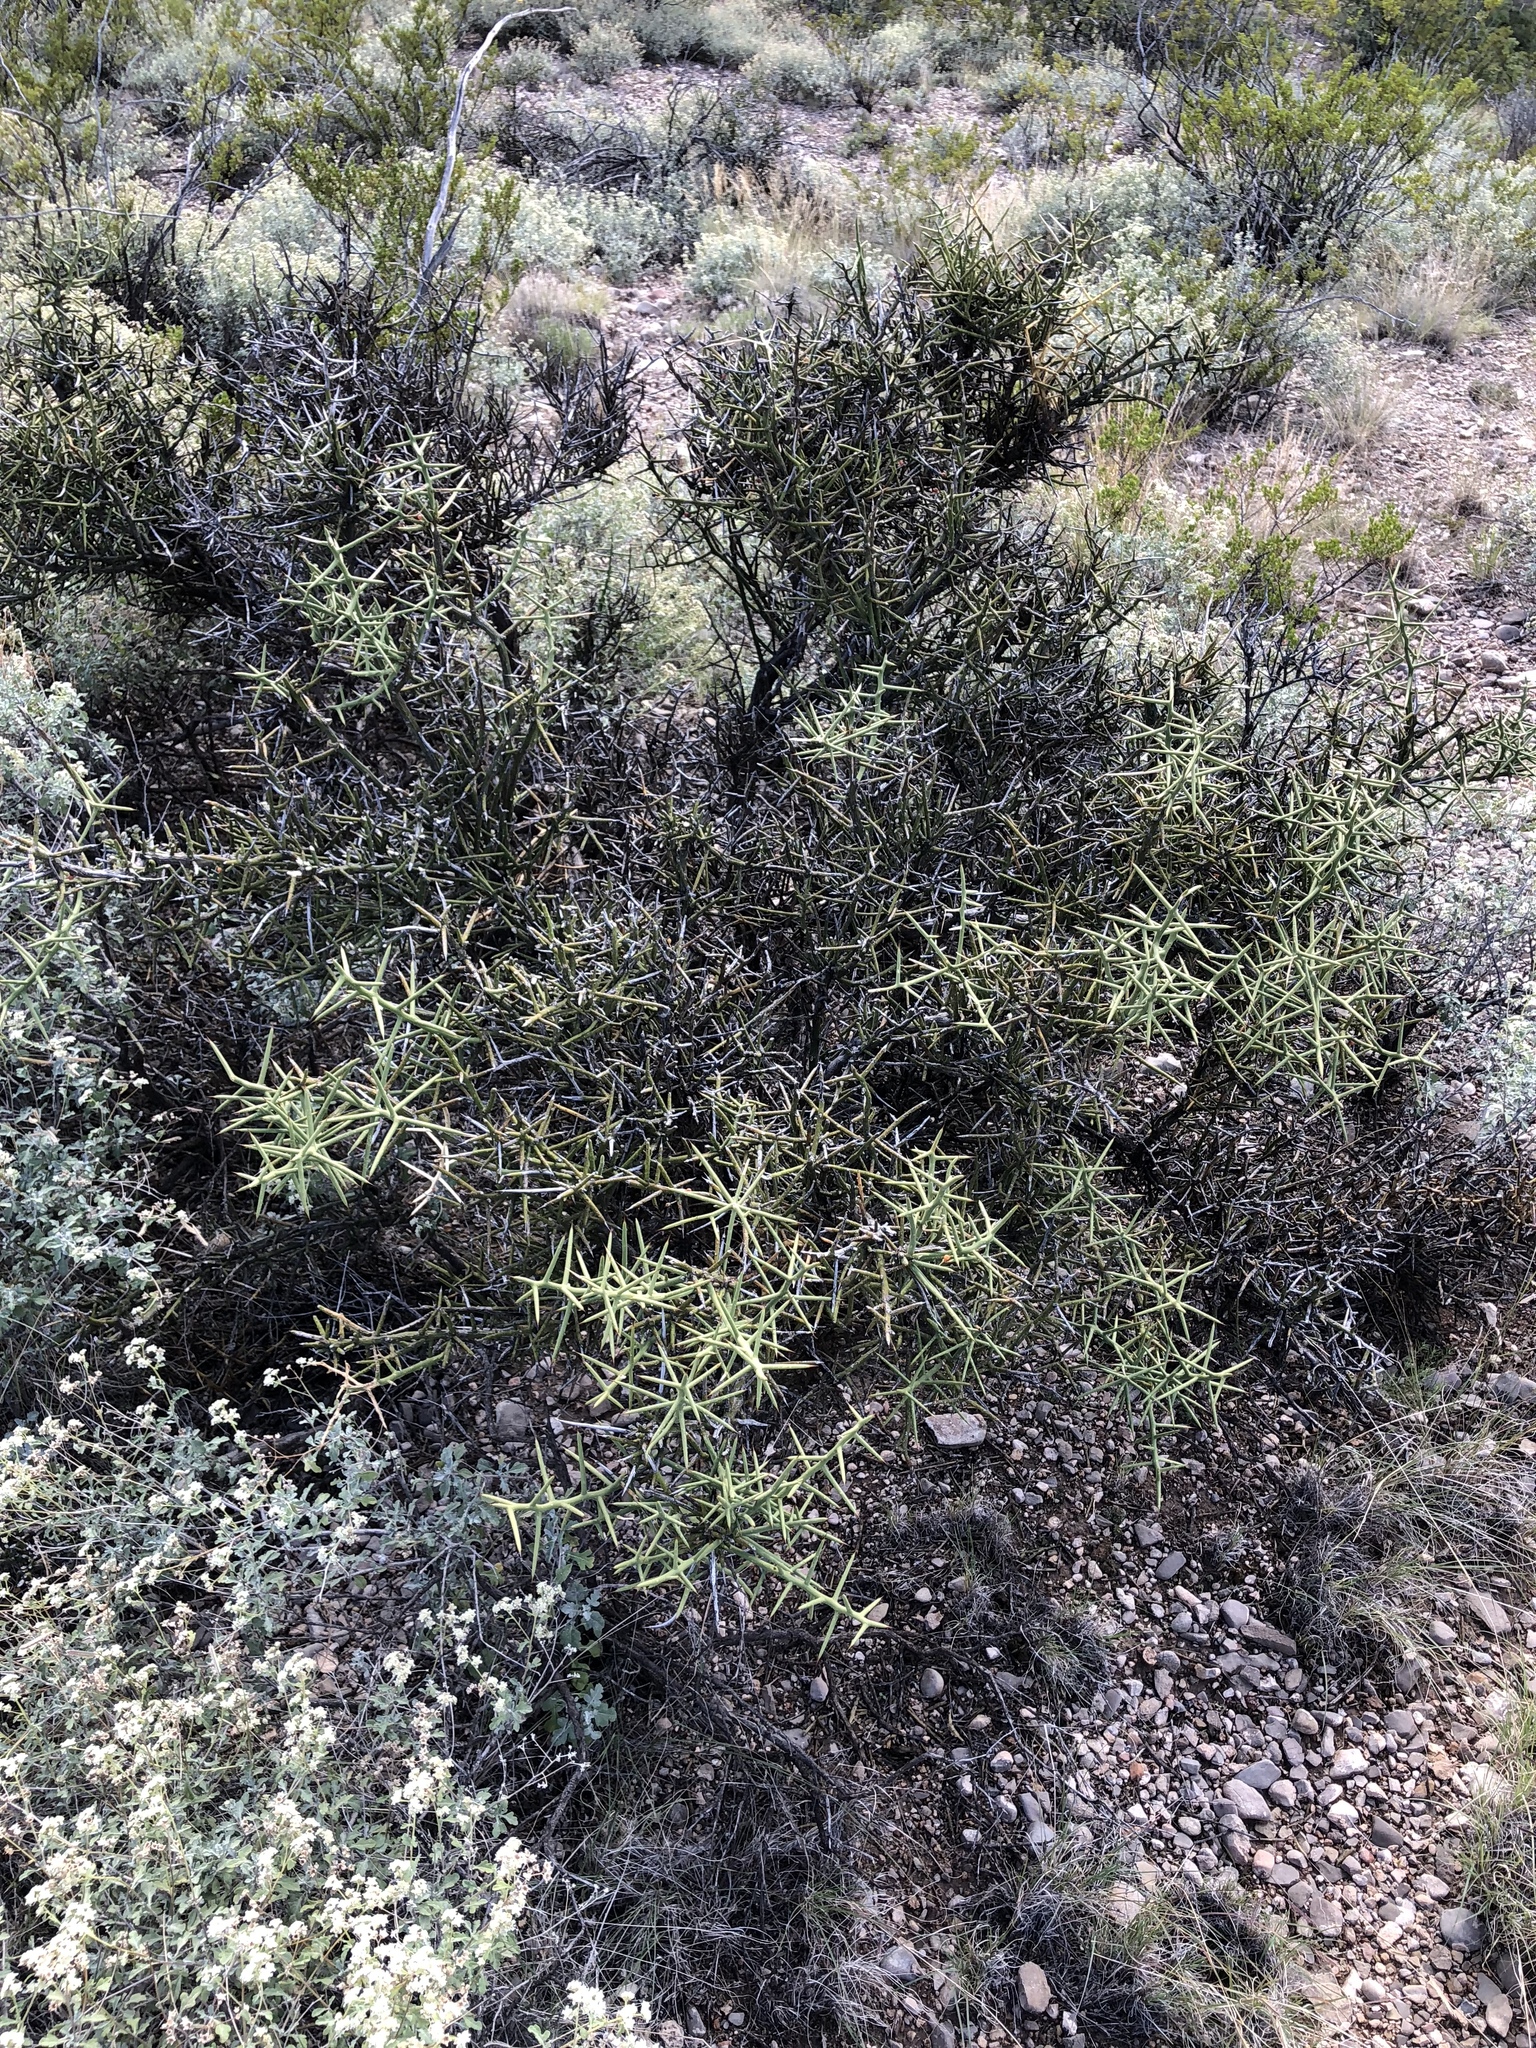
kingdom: Plantae
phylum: Tracheophyta
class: Magnoliopsida
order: Brassicales
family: Koeberliniaceae
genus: Koeberlinia
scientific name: Koeberlinia spinosa
